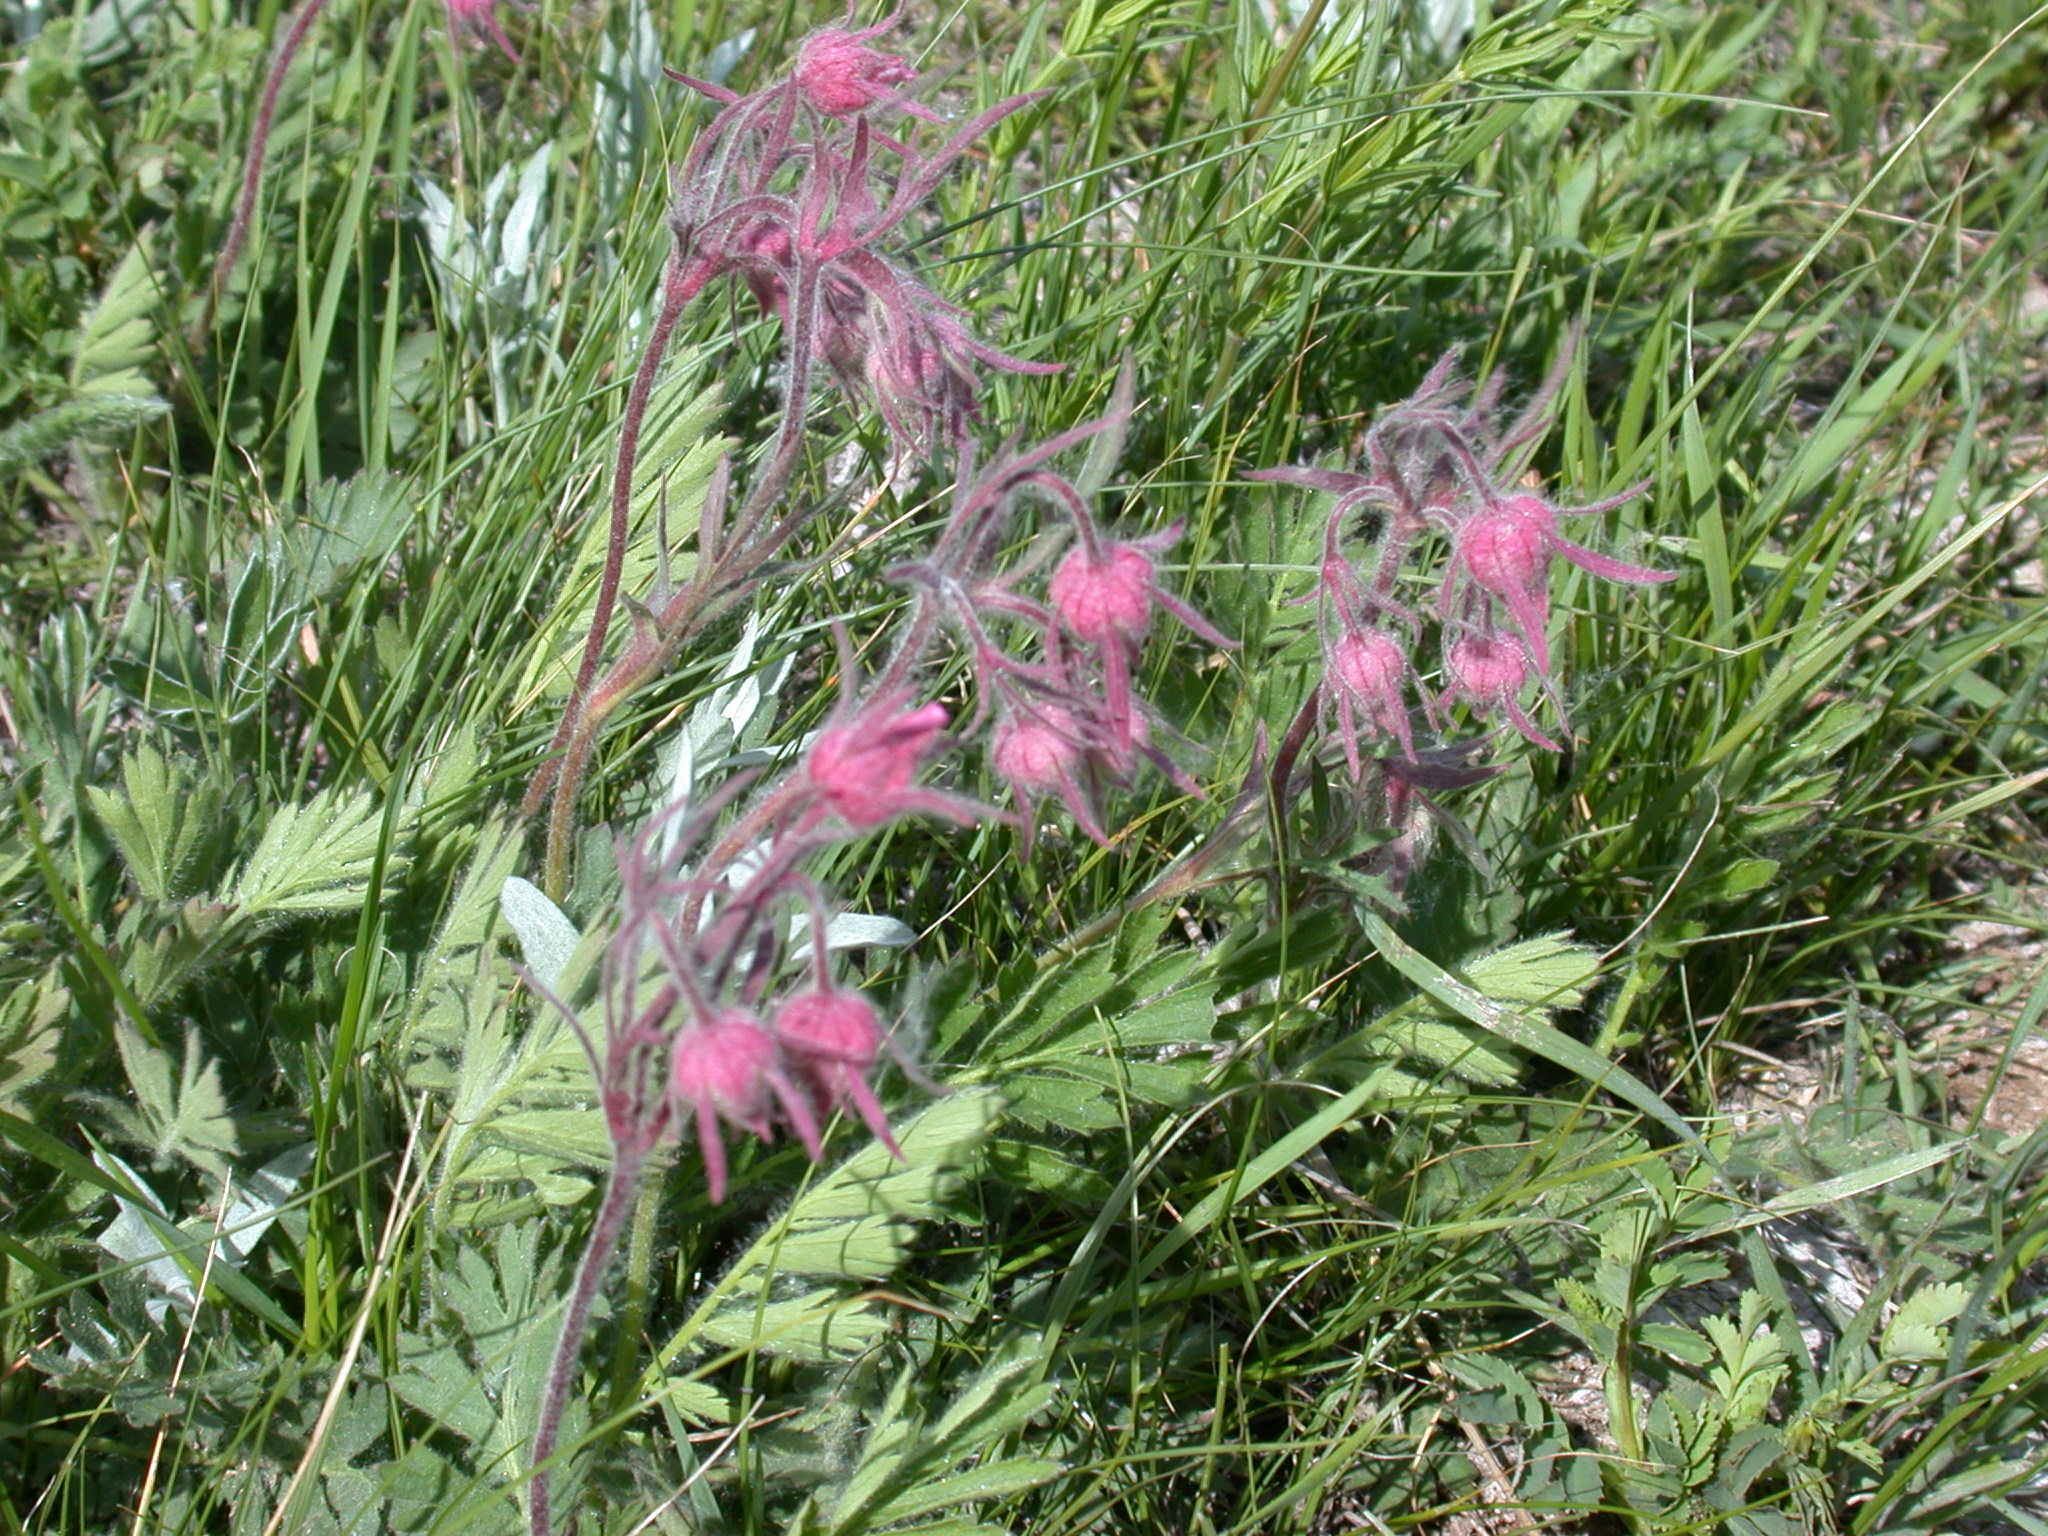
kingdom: Plantae
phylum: Tracheophyta
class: Magnoliopsida
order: Rosales
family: Rosaceae
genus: Geum
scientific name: Geum triflorum
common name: Old man's whiskers
